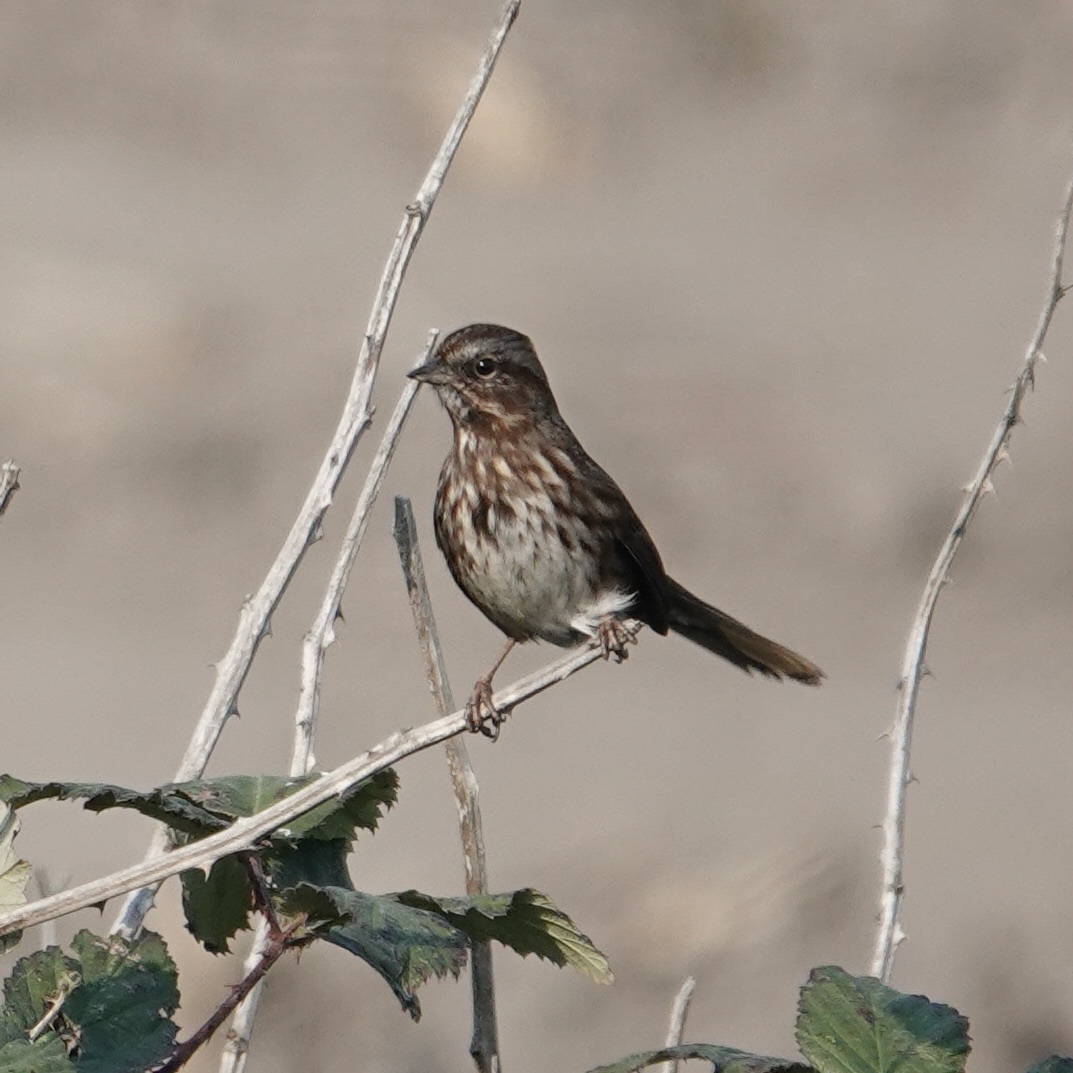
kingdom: Animalia
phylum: Chordata
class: Aves
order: Passeriformes
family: Passerellidae
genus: Melospiza
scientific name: Melospiza melodia
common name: Song sparrow
